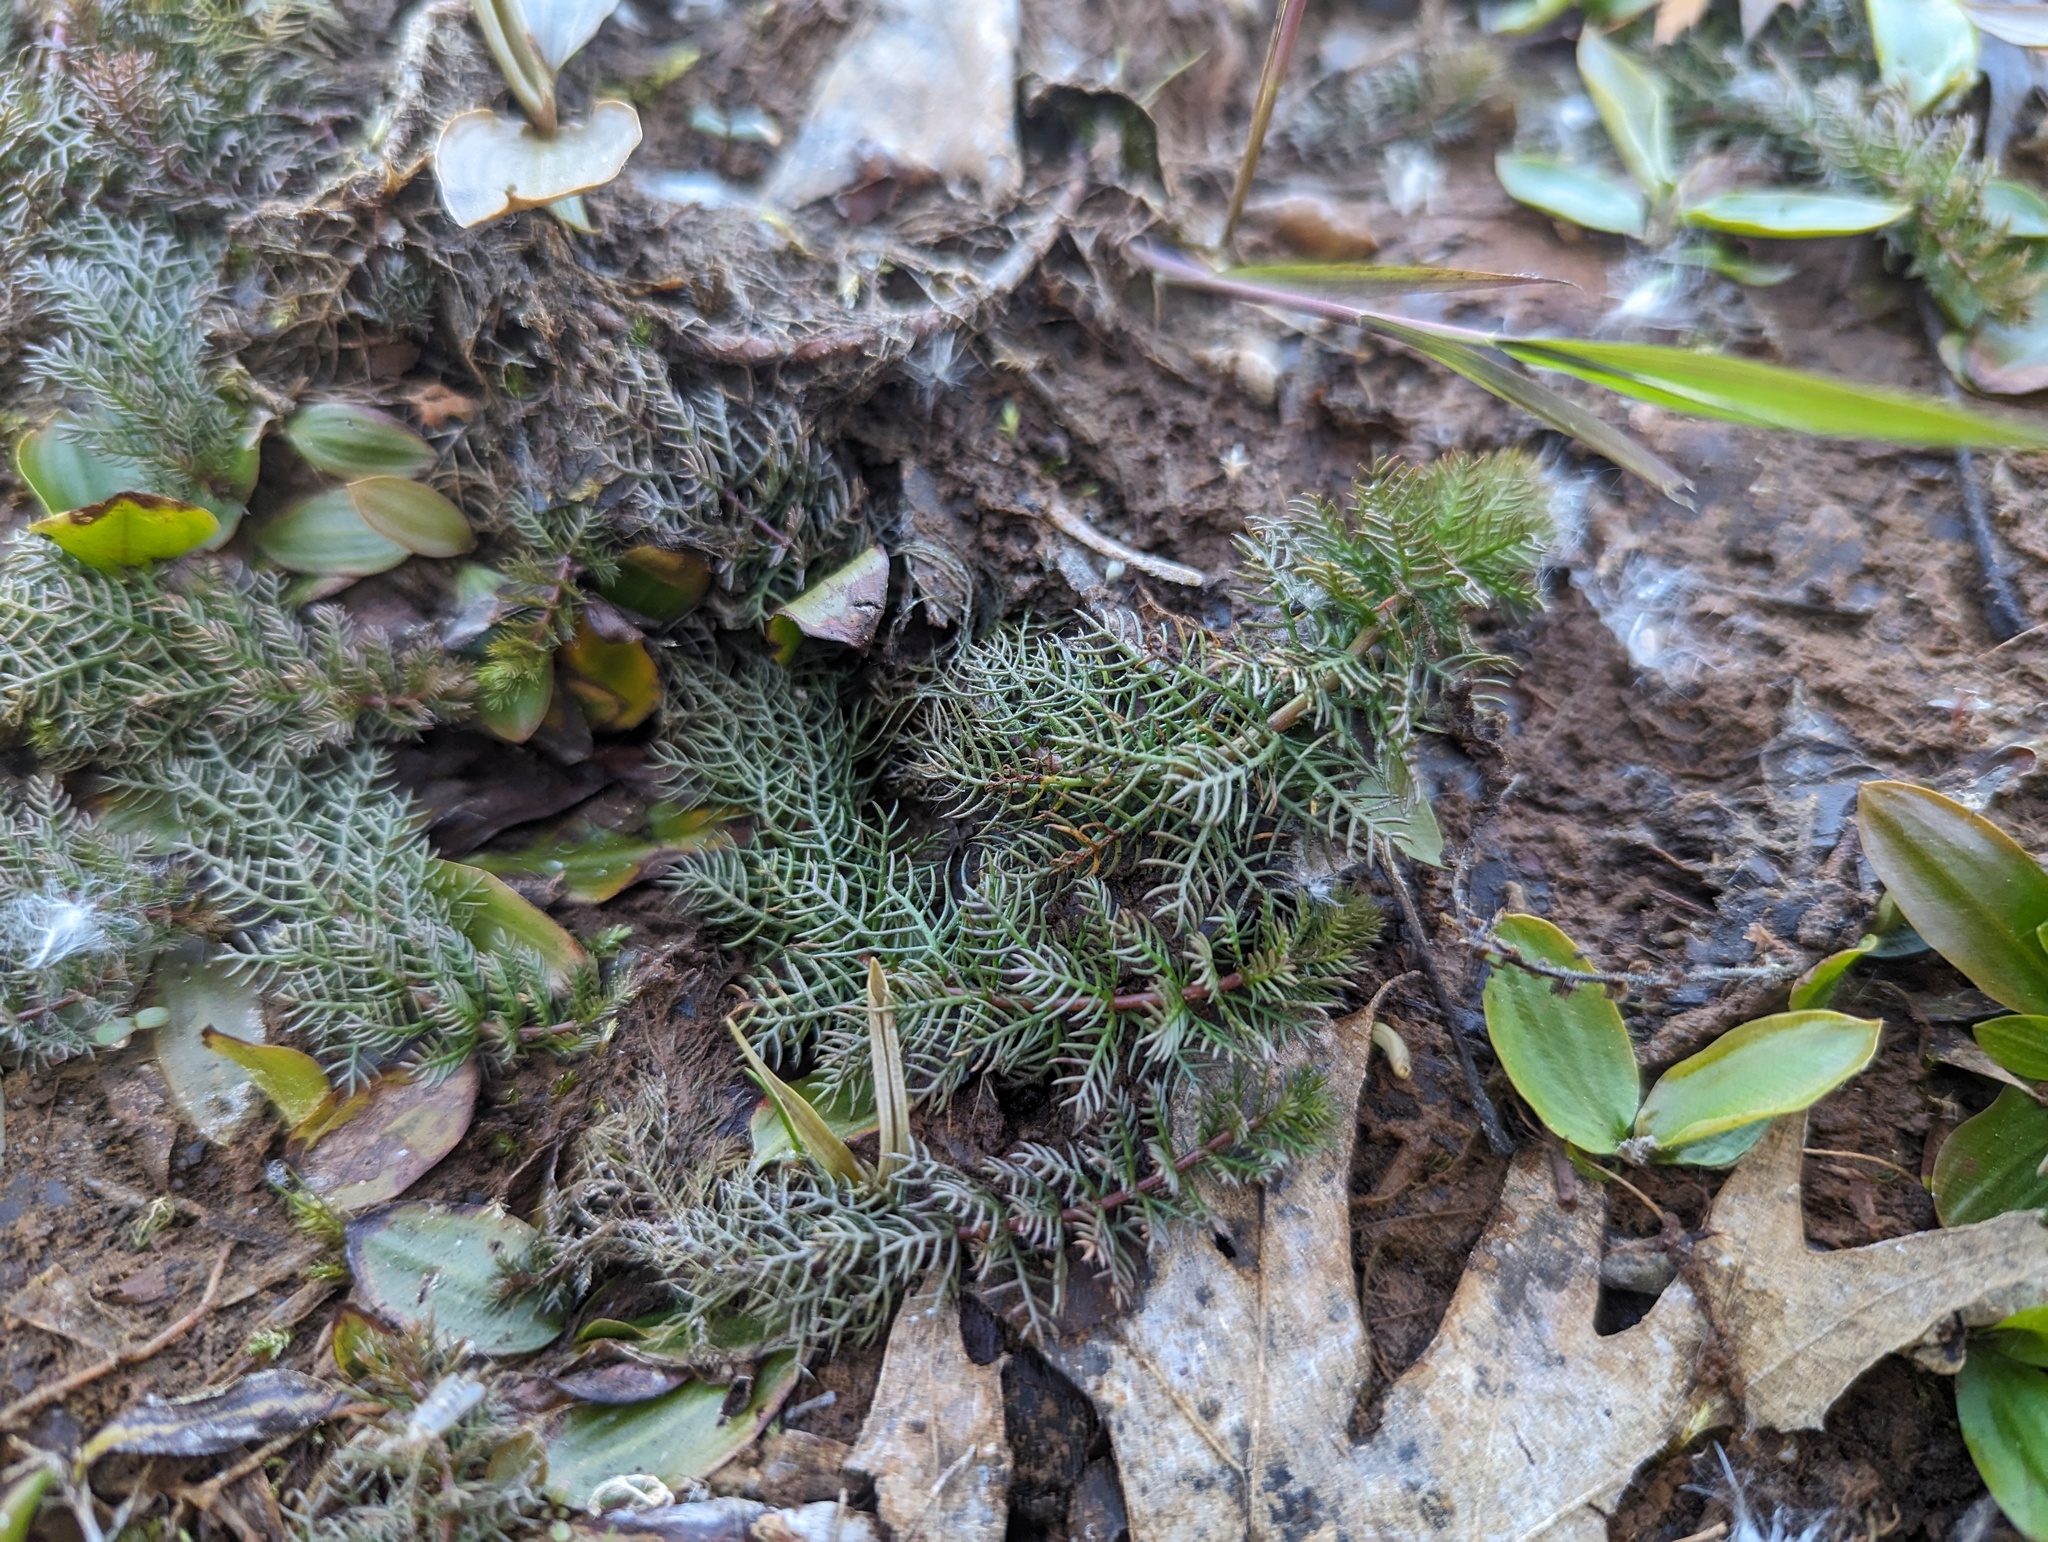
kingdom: Plantae
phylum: Tracheophyta
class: Magnoliopsida
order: Saxifragales
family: Haloragaceae
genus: Myriophyllum
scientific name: Myriophyllum verticillatum
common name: Whorled water-milfoil
